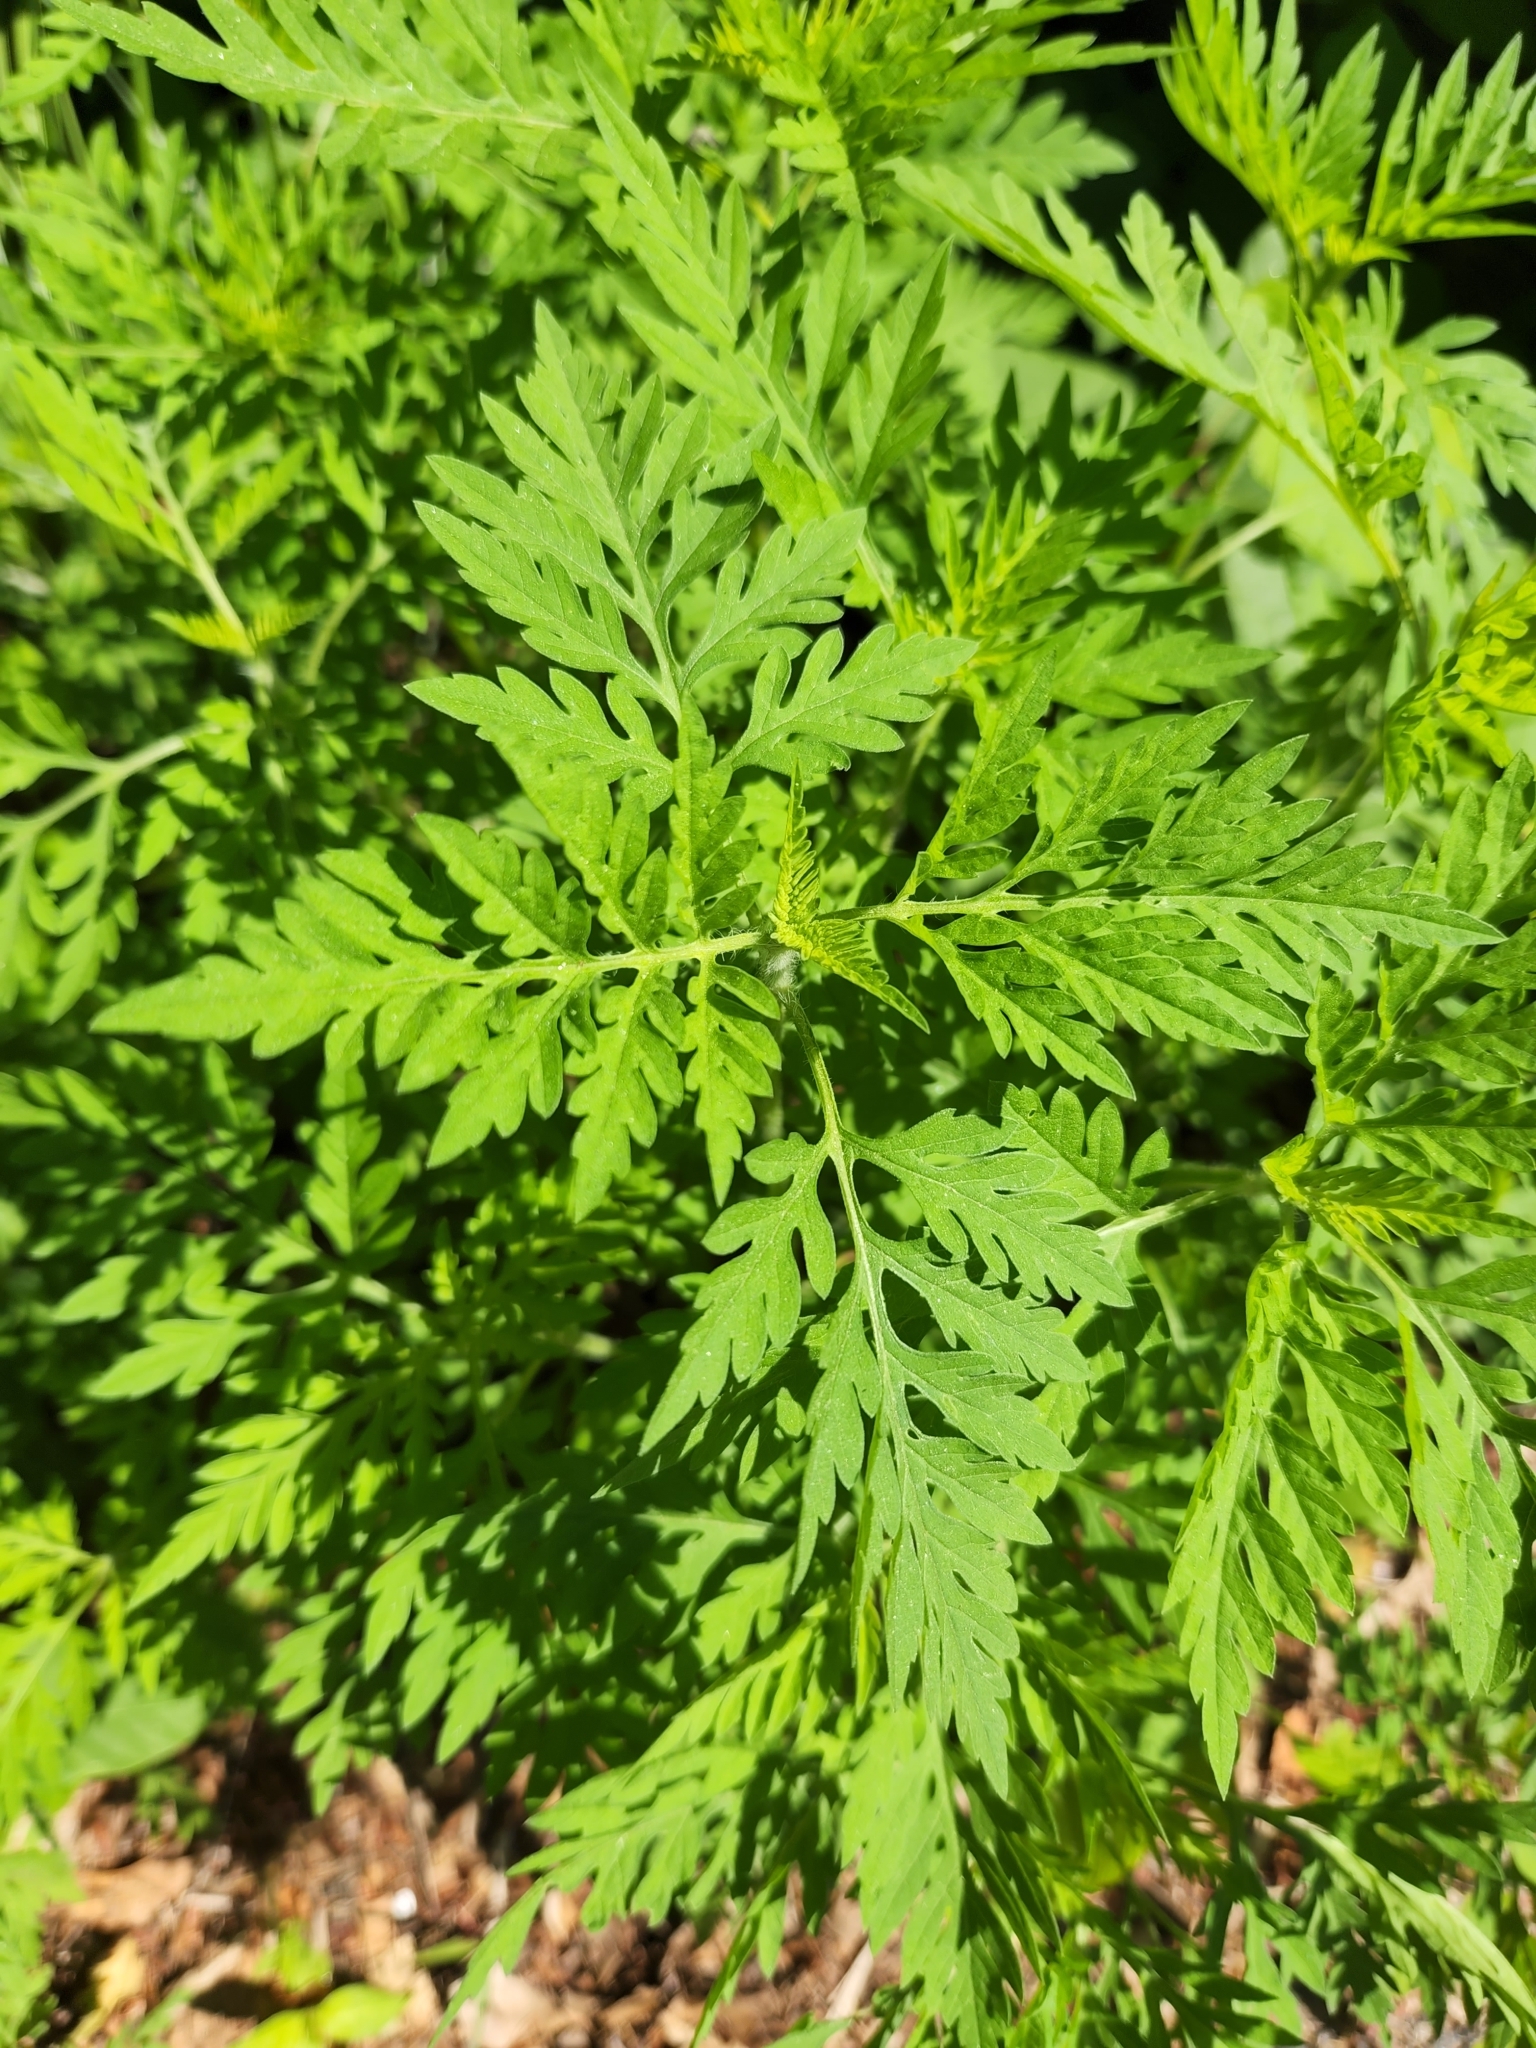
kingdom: Plantae
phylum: Tracheophyta
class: Magnoliopsida
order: Asterales
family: Asteraceae
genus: Ambrosia
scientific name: Ambrosia artemisiifolia
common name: Annual ragweed
